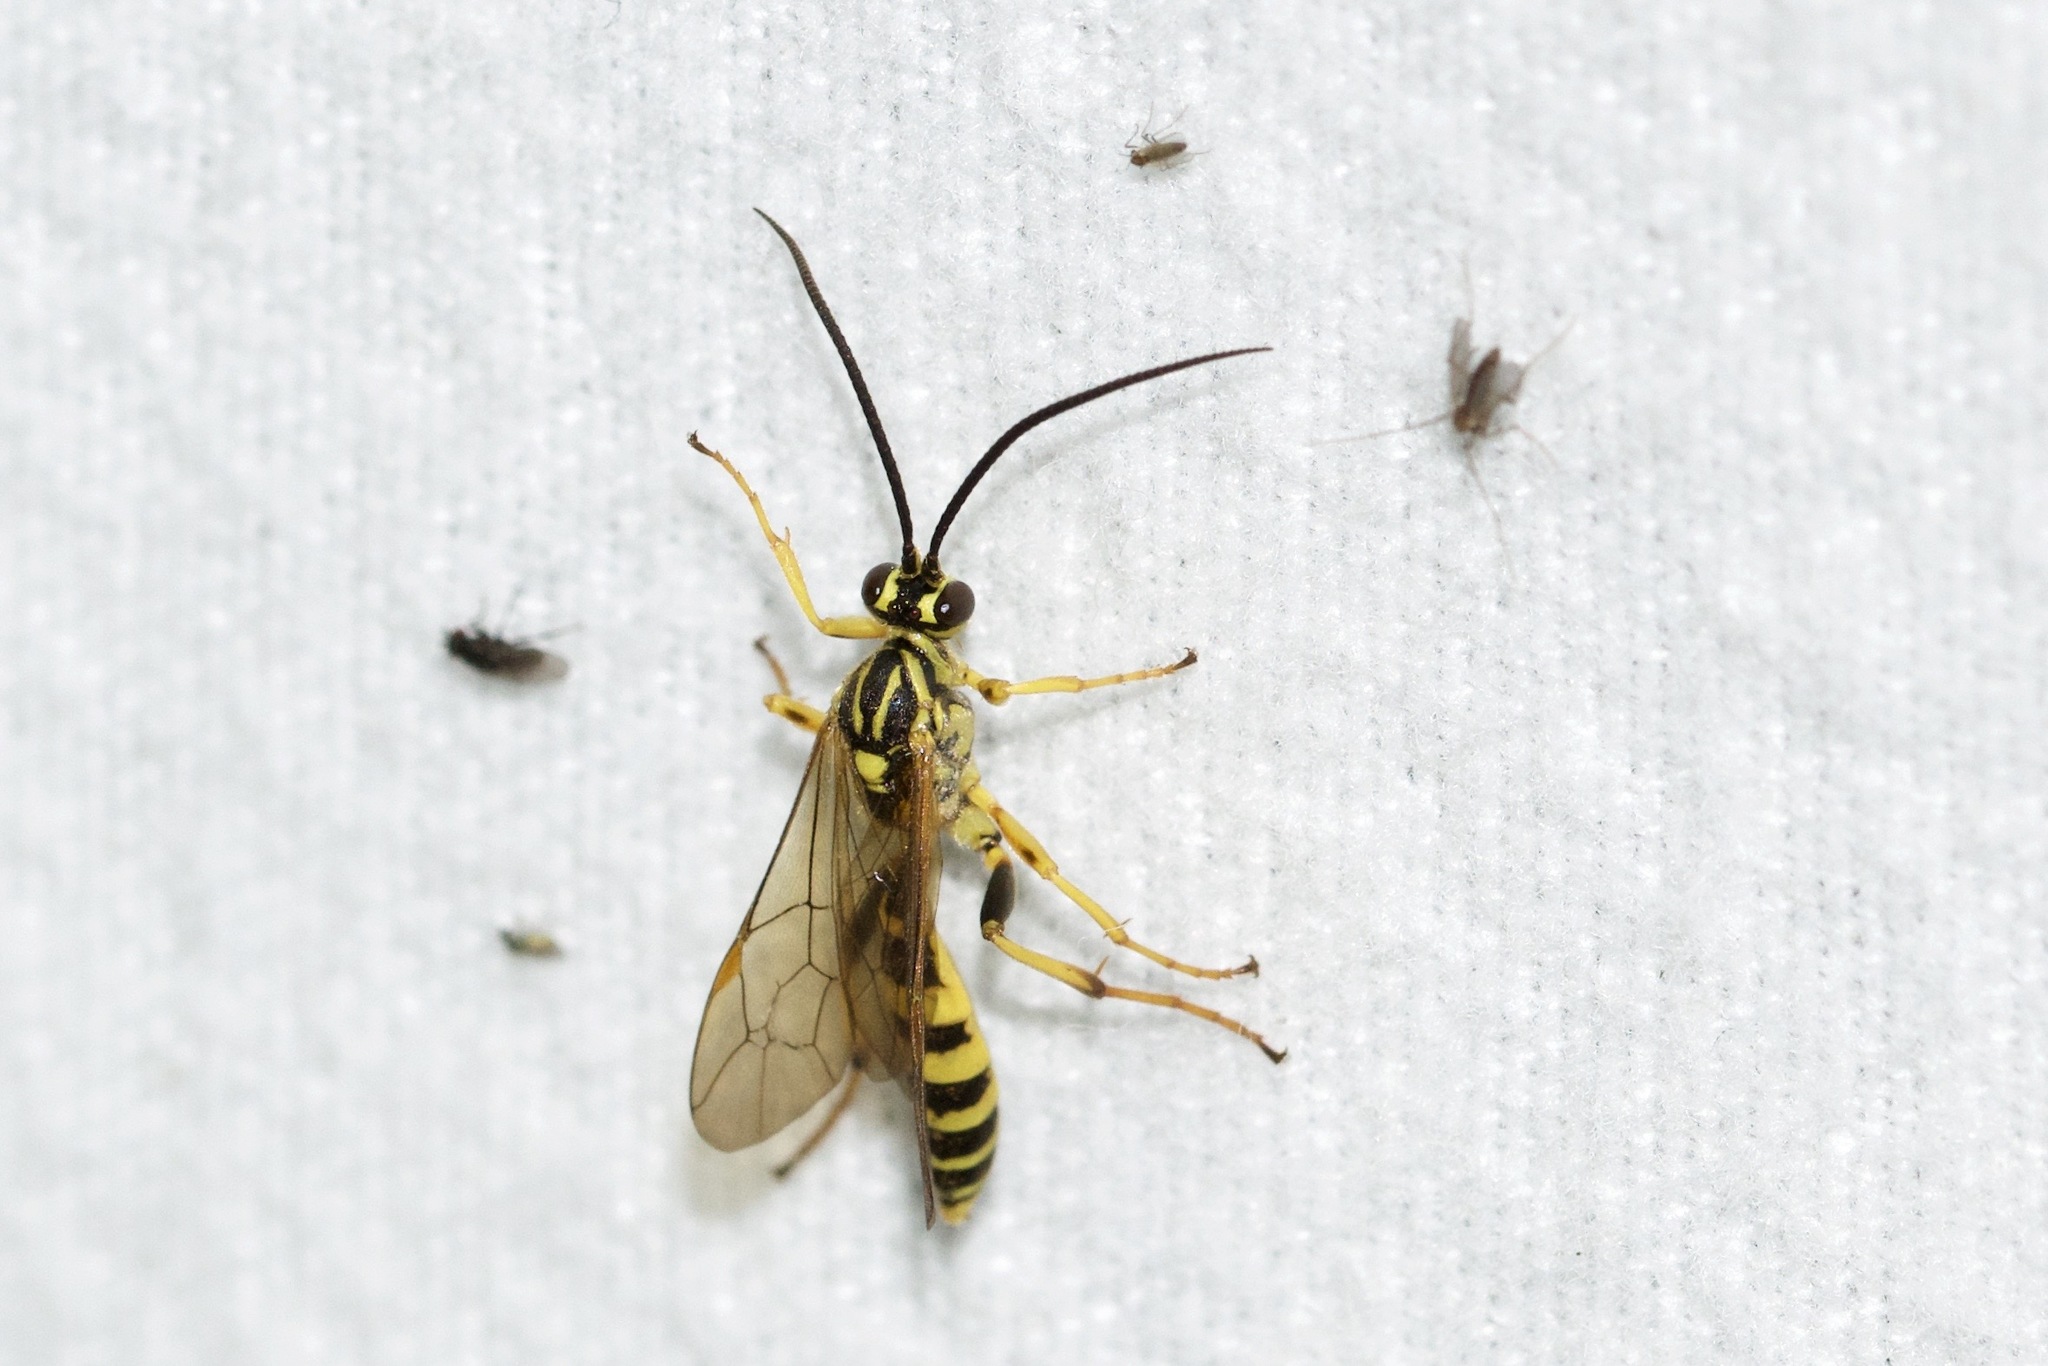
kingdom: Animalia
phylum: Arthropoda
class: Insecta
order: Hymenoptera
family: Ichneumonidae
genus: Setanta
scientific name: Setanta compta
